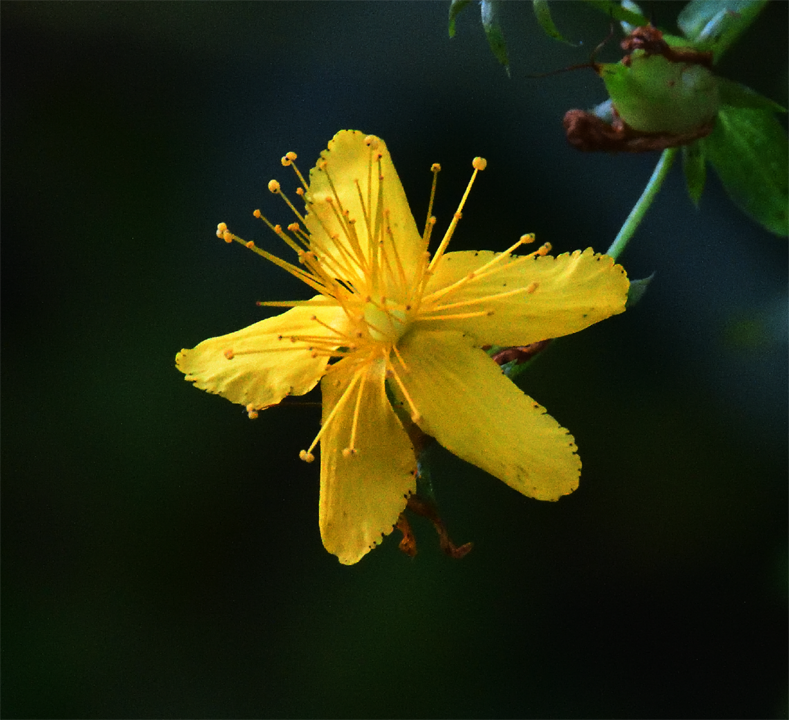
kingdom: Plantae
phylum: Tracheophyta
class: Magnoliopsida
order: Malpighiales
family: Hypericaceae
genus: Hypericum
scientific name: Hypericum perforatum
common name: Common st. johnswort
